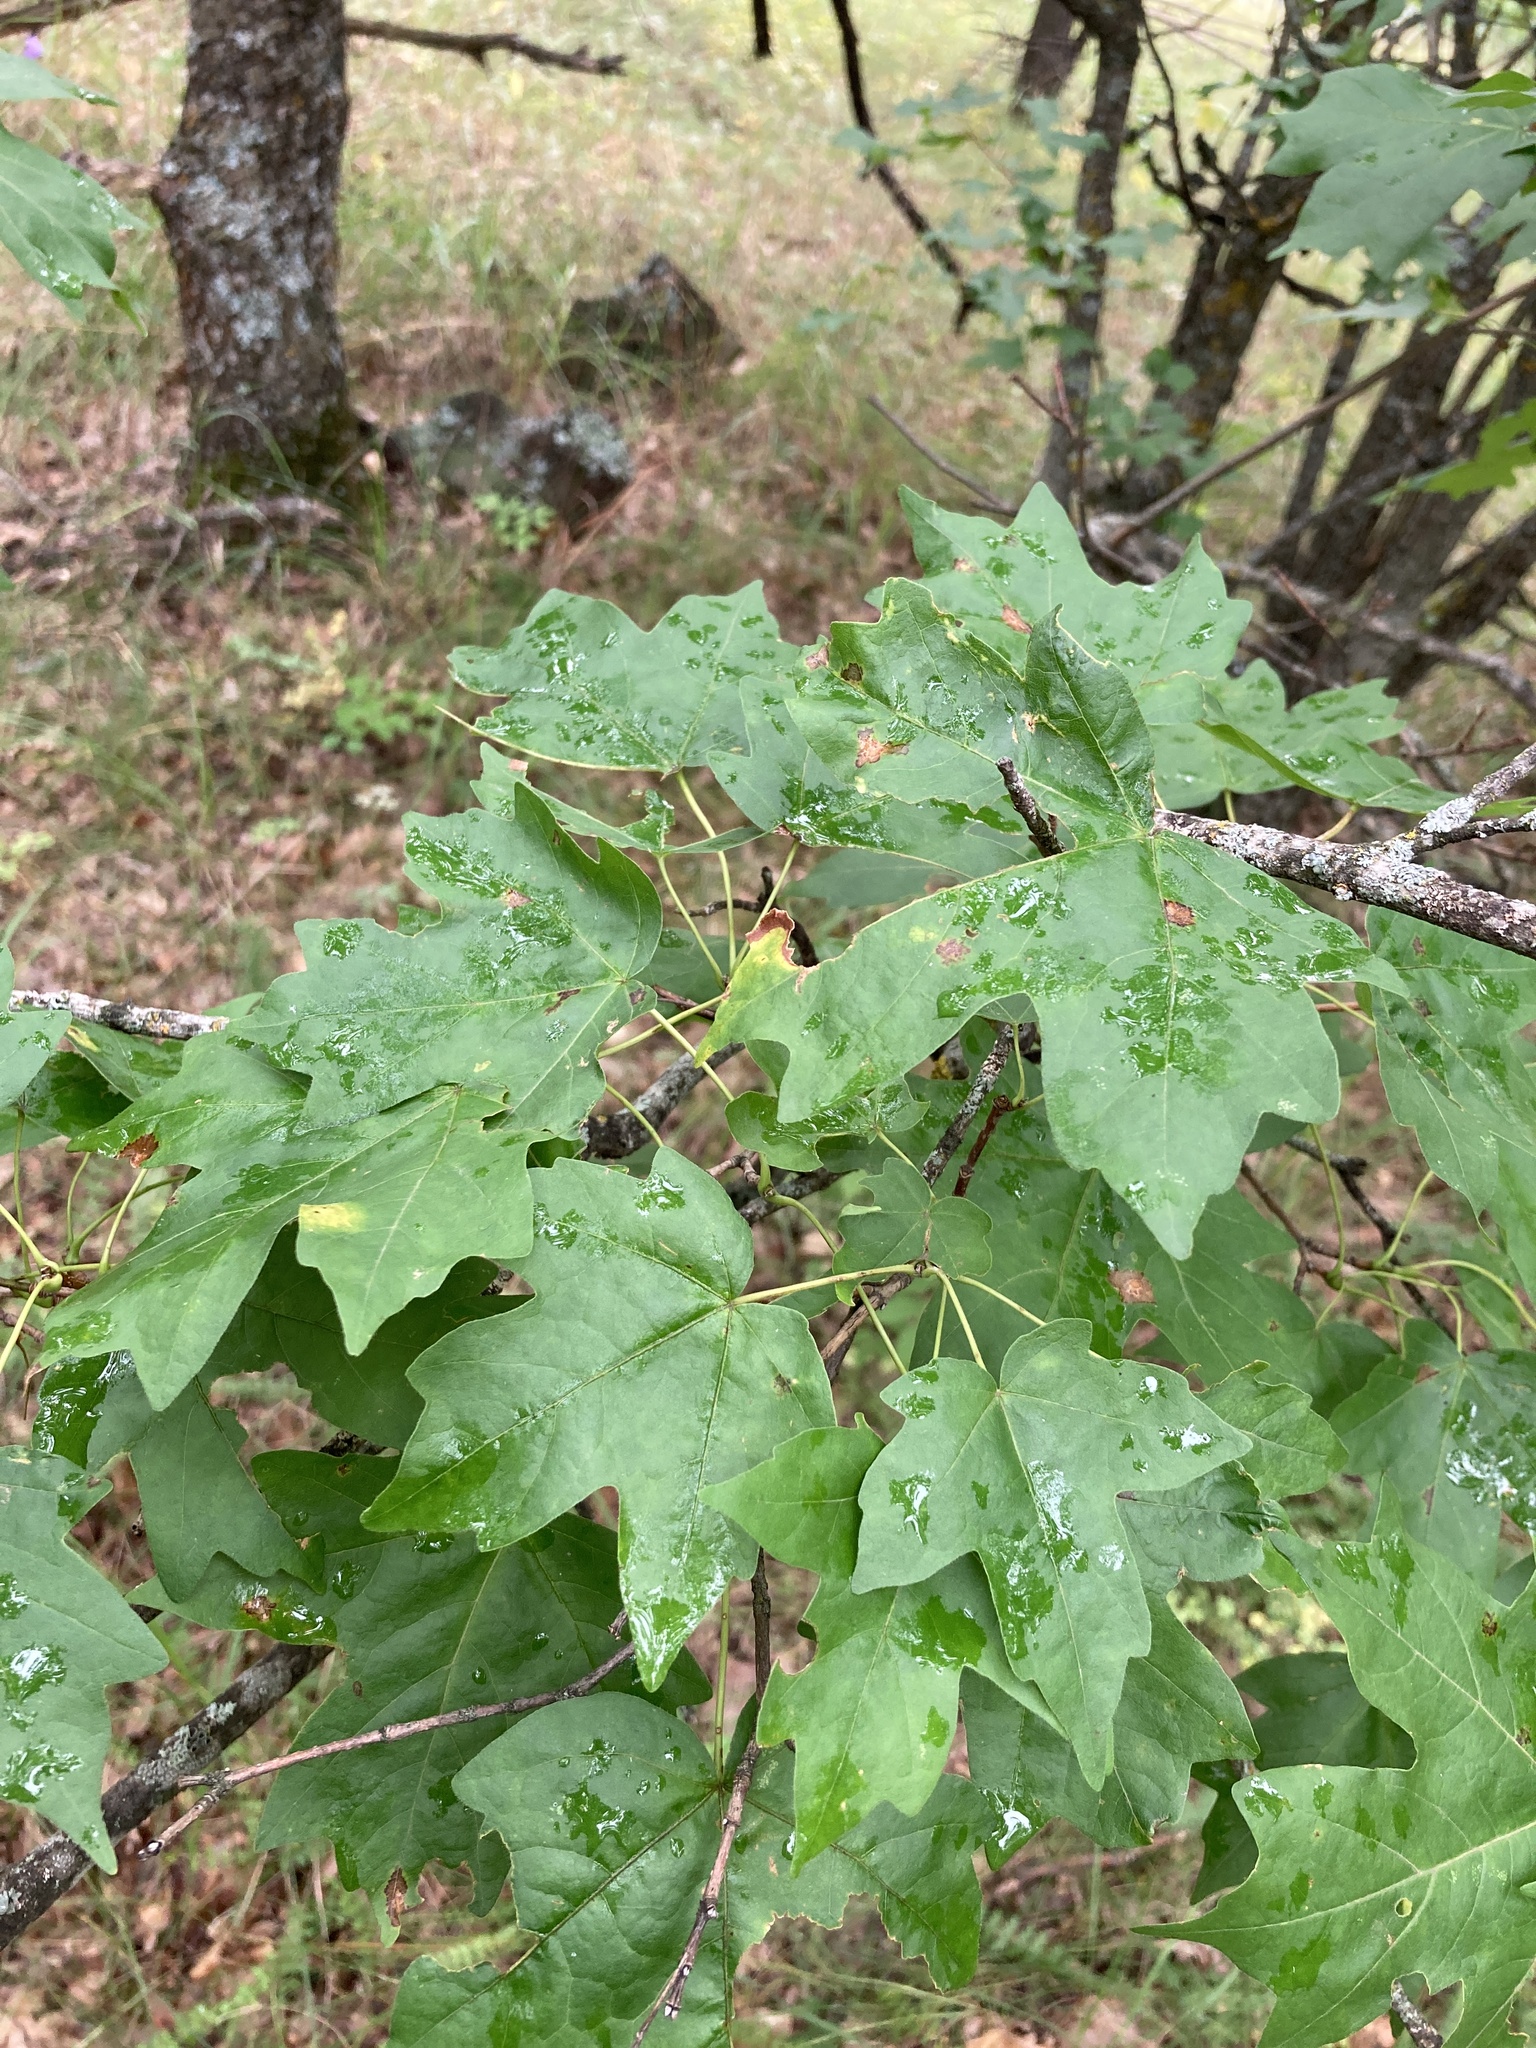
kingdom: Plantae
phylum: Tracheophyta
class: Magnoliopsida
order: Sapindales
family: Sapindaceae
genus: Acer
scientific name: Acer campestre
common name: Field maple
